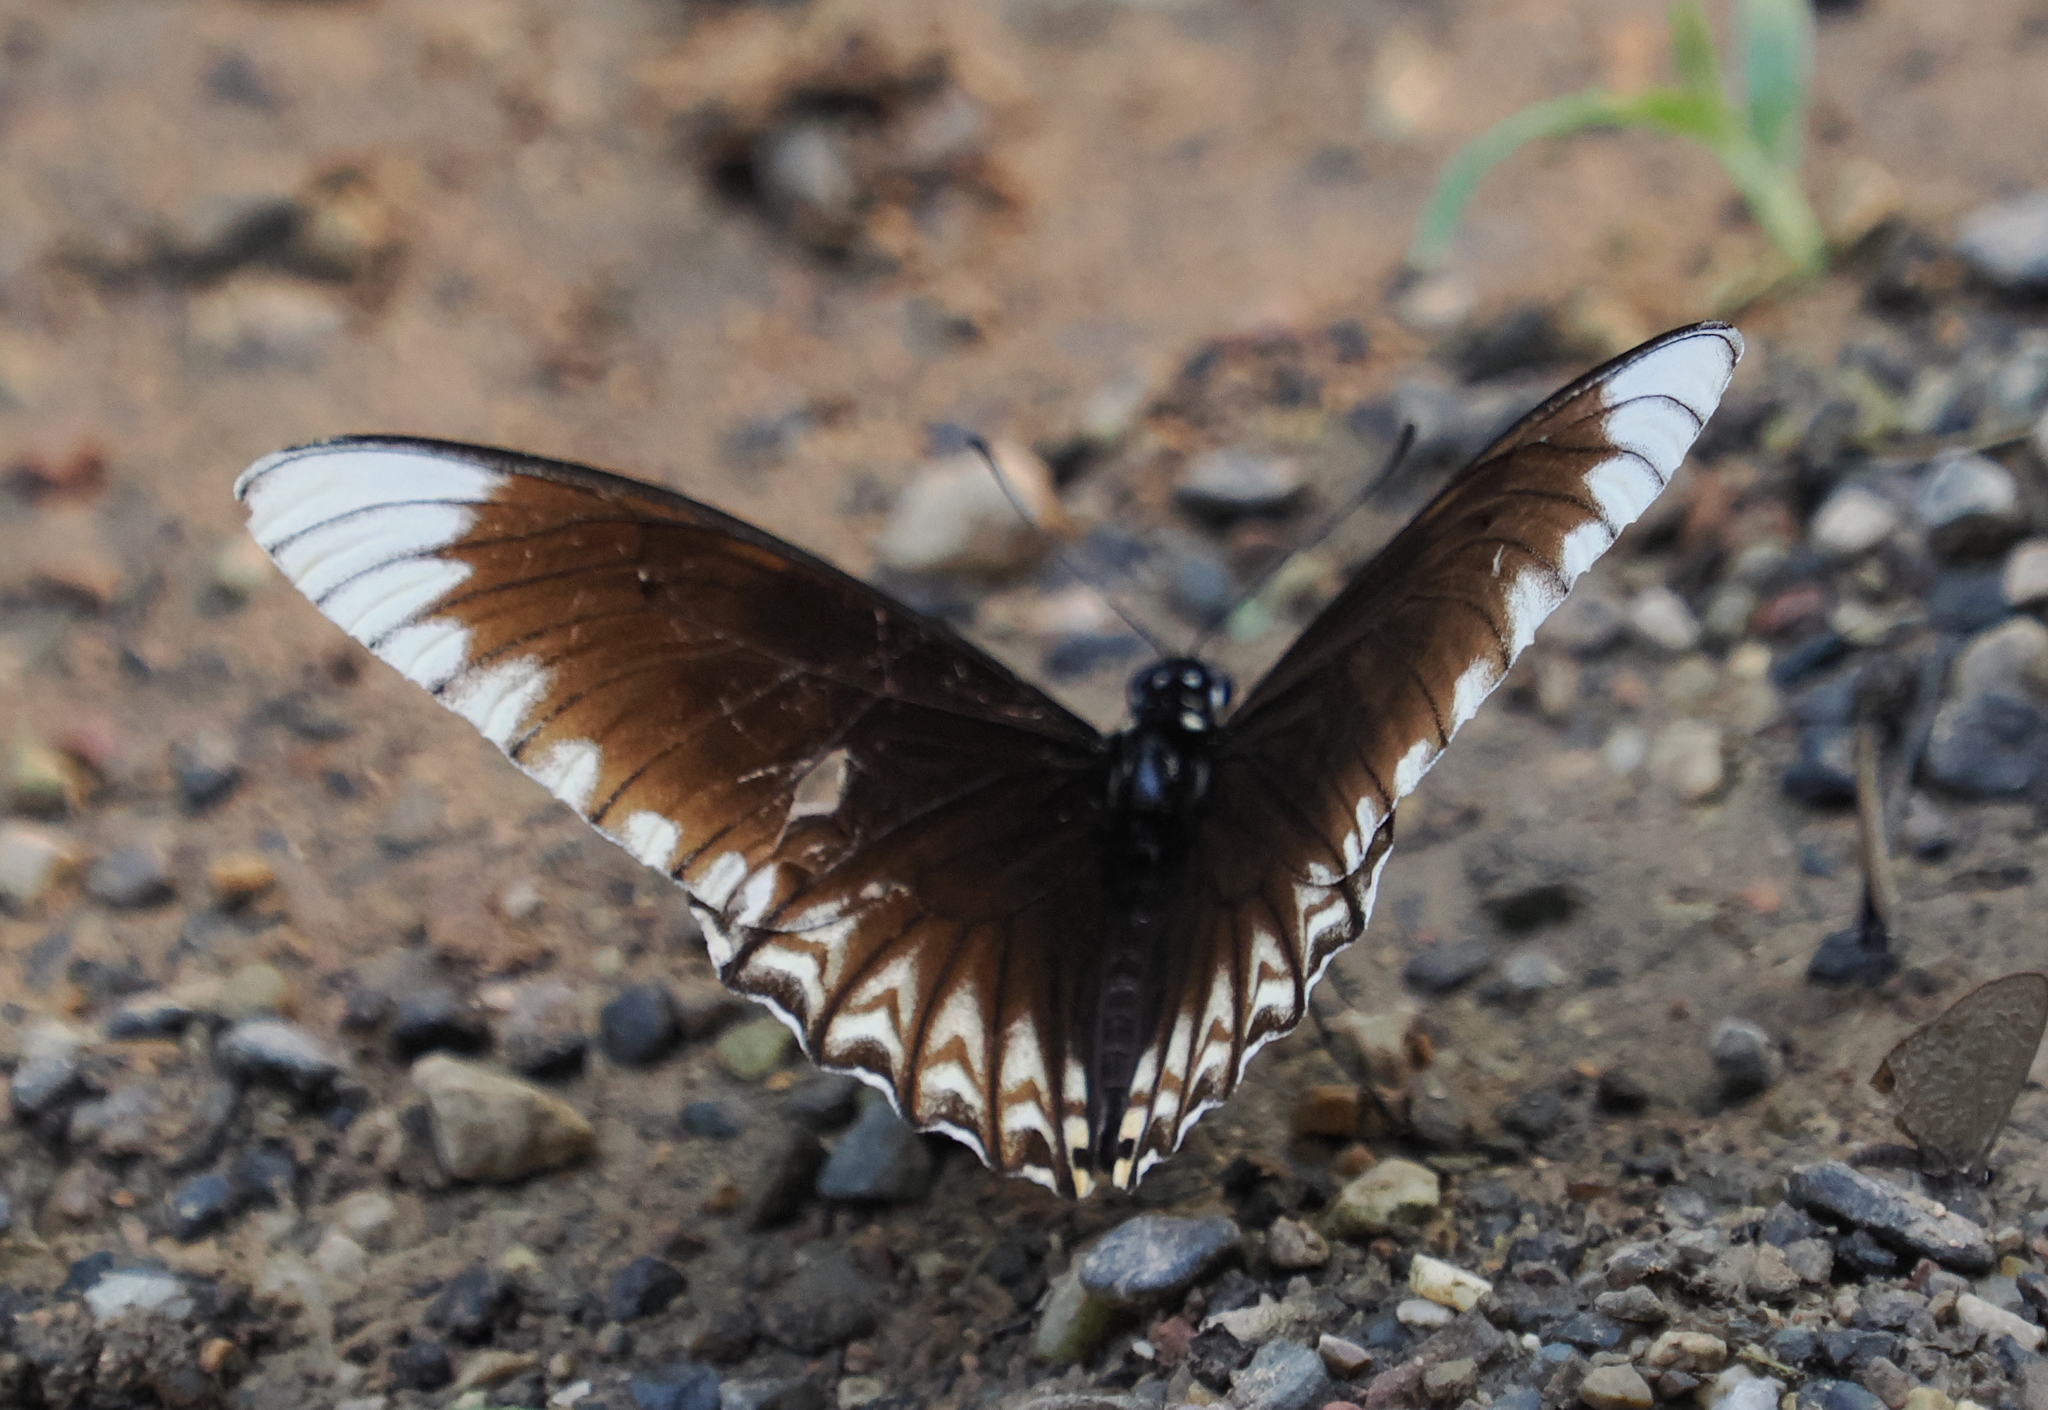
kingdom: Animalia
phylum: Arthropoda
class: Insecta
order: Lepidoptera
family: Papilionidae
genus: Chilasa
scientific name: Chilasa clytia
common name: Common mime
